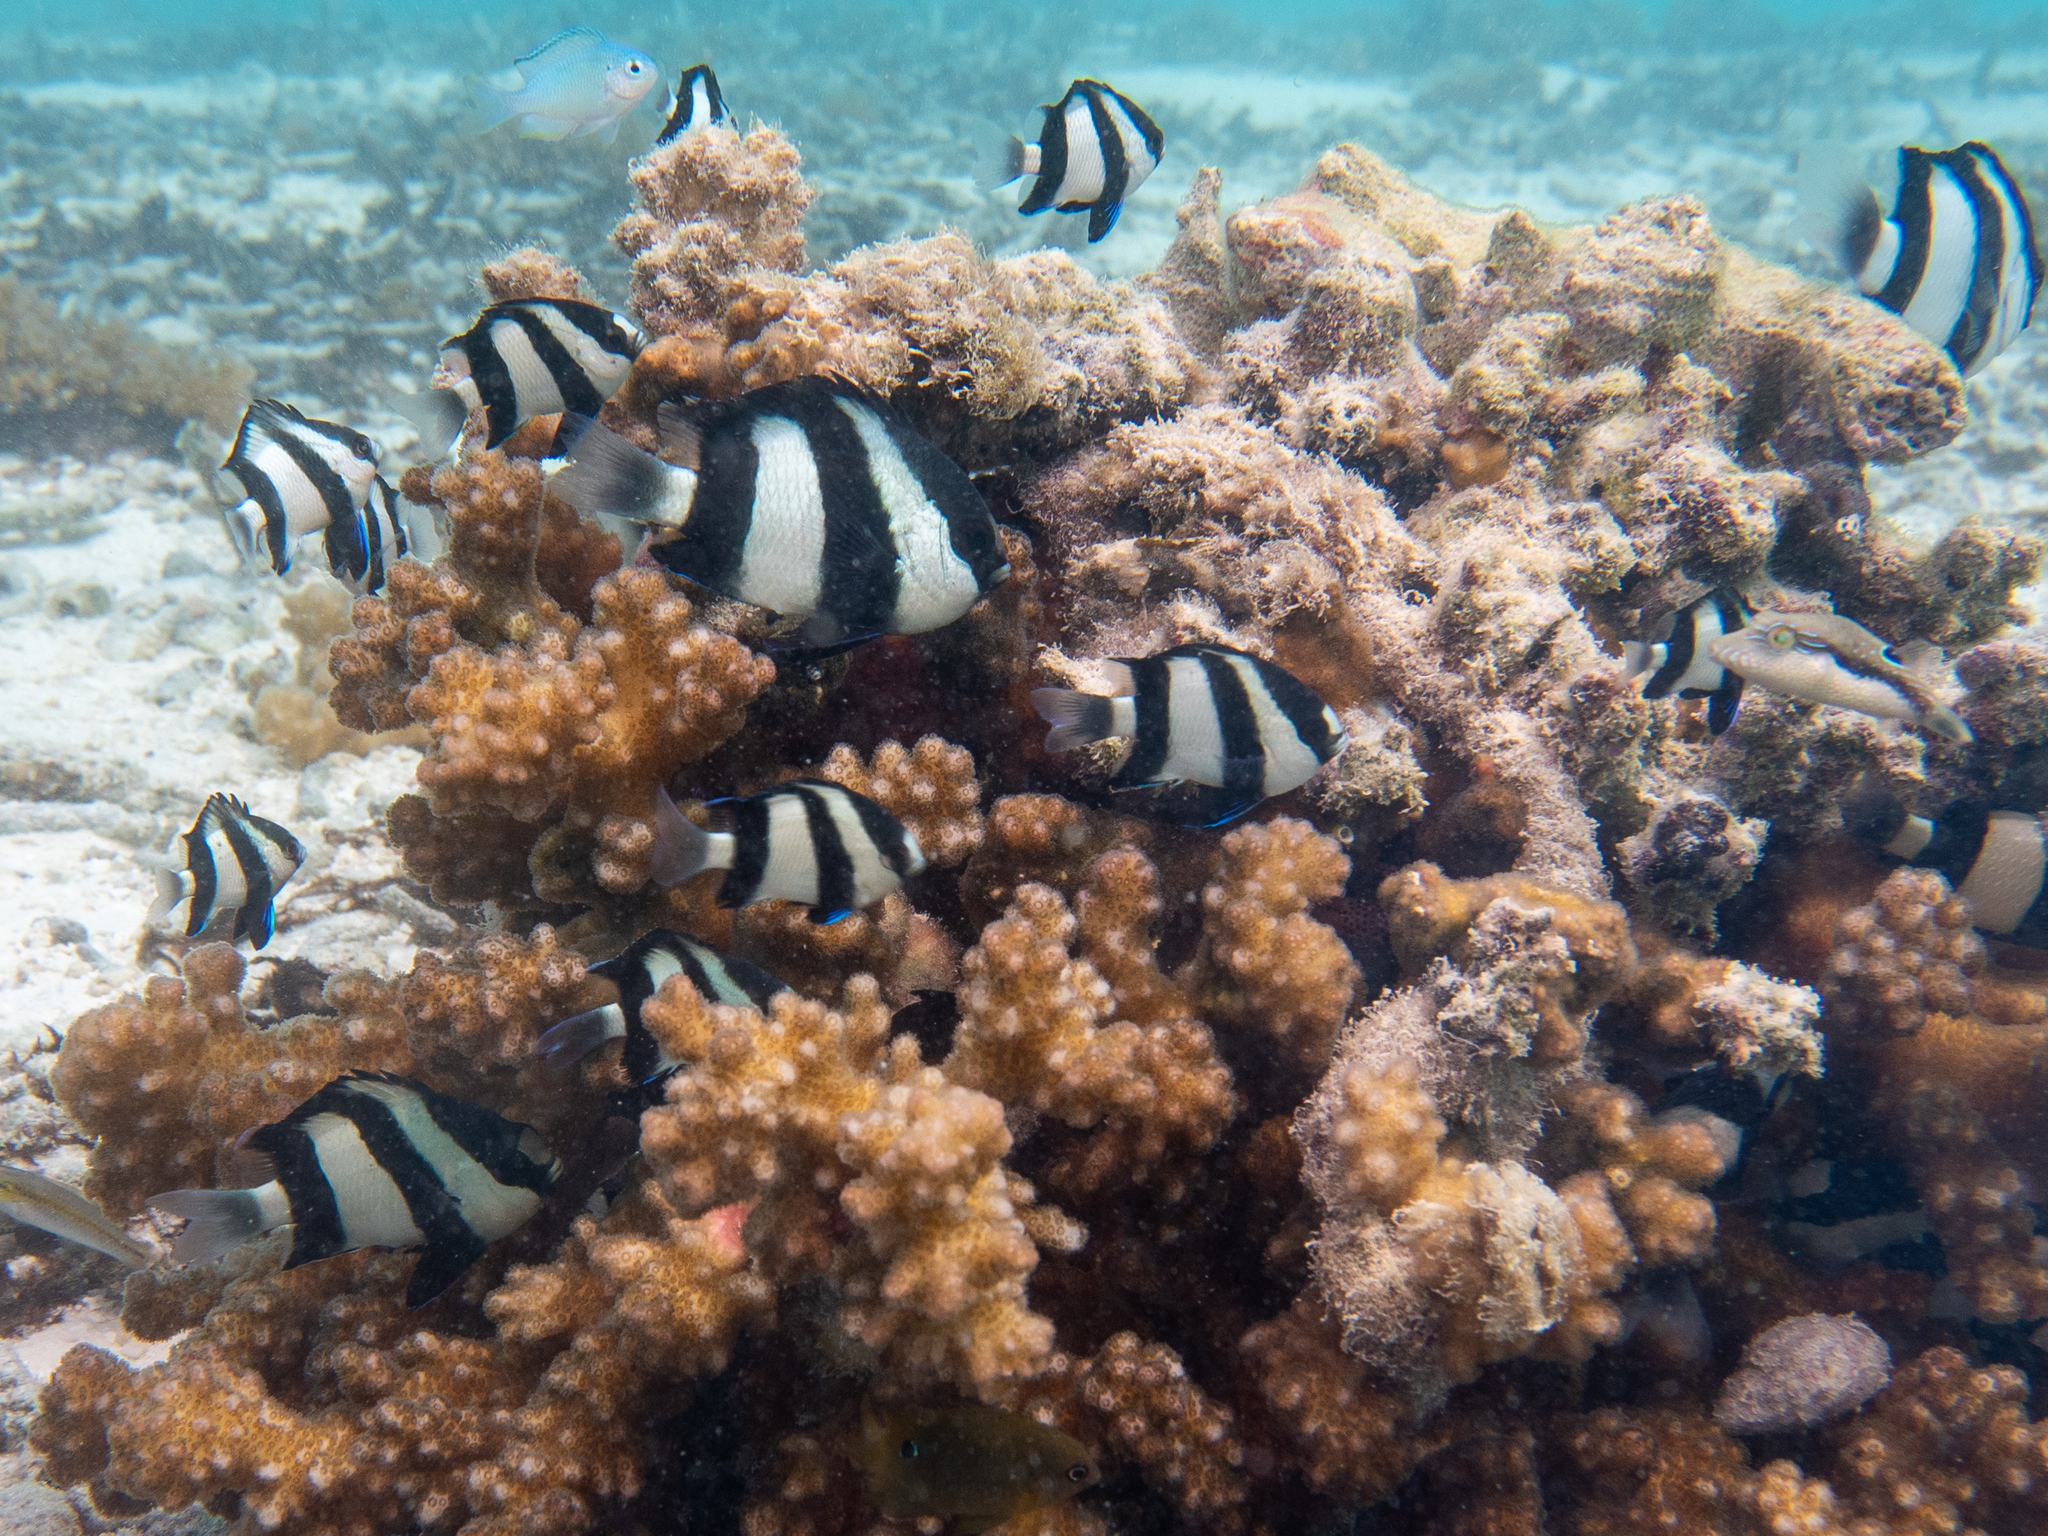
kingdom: Animalia
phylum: Chordata
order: Perciformes
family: Pomacentridae
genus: Dascyllus
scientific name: Dascyllus abudafur
